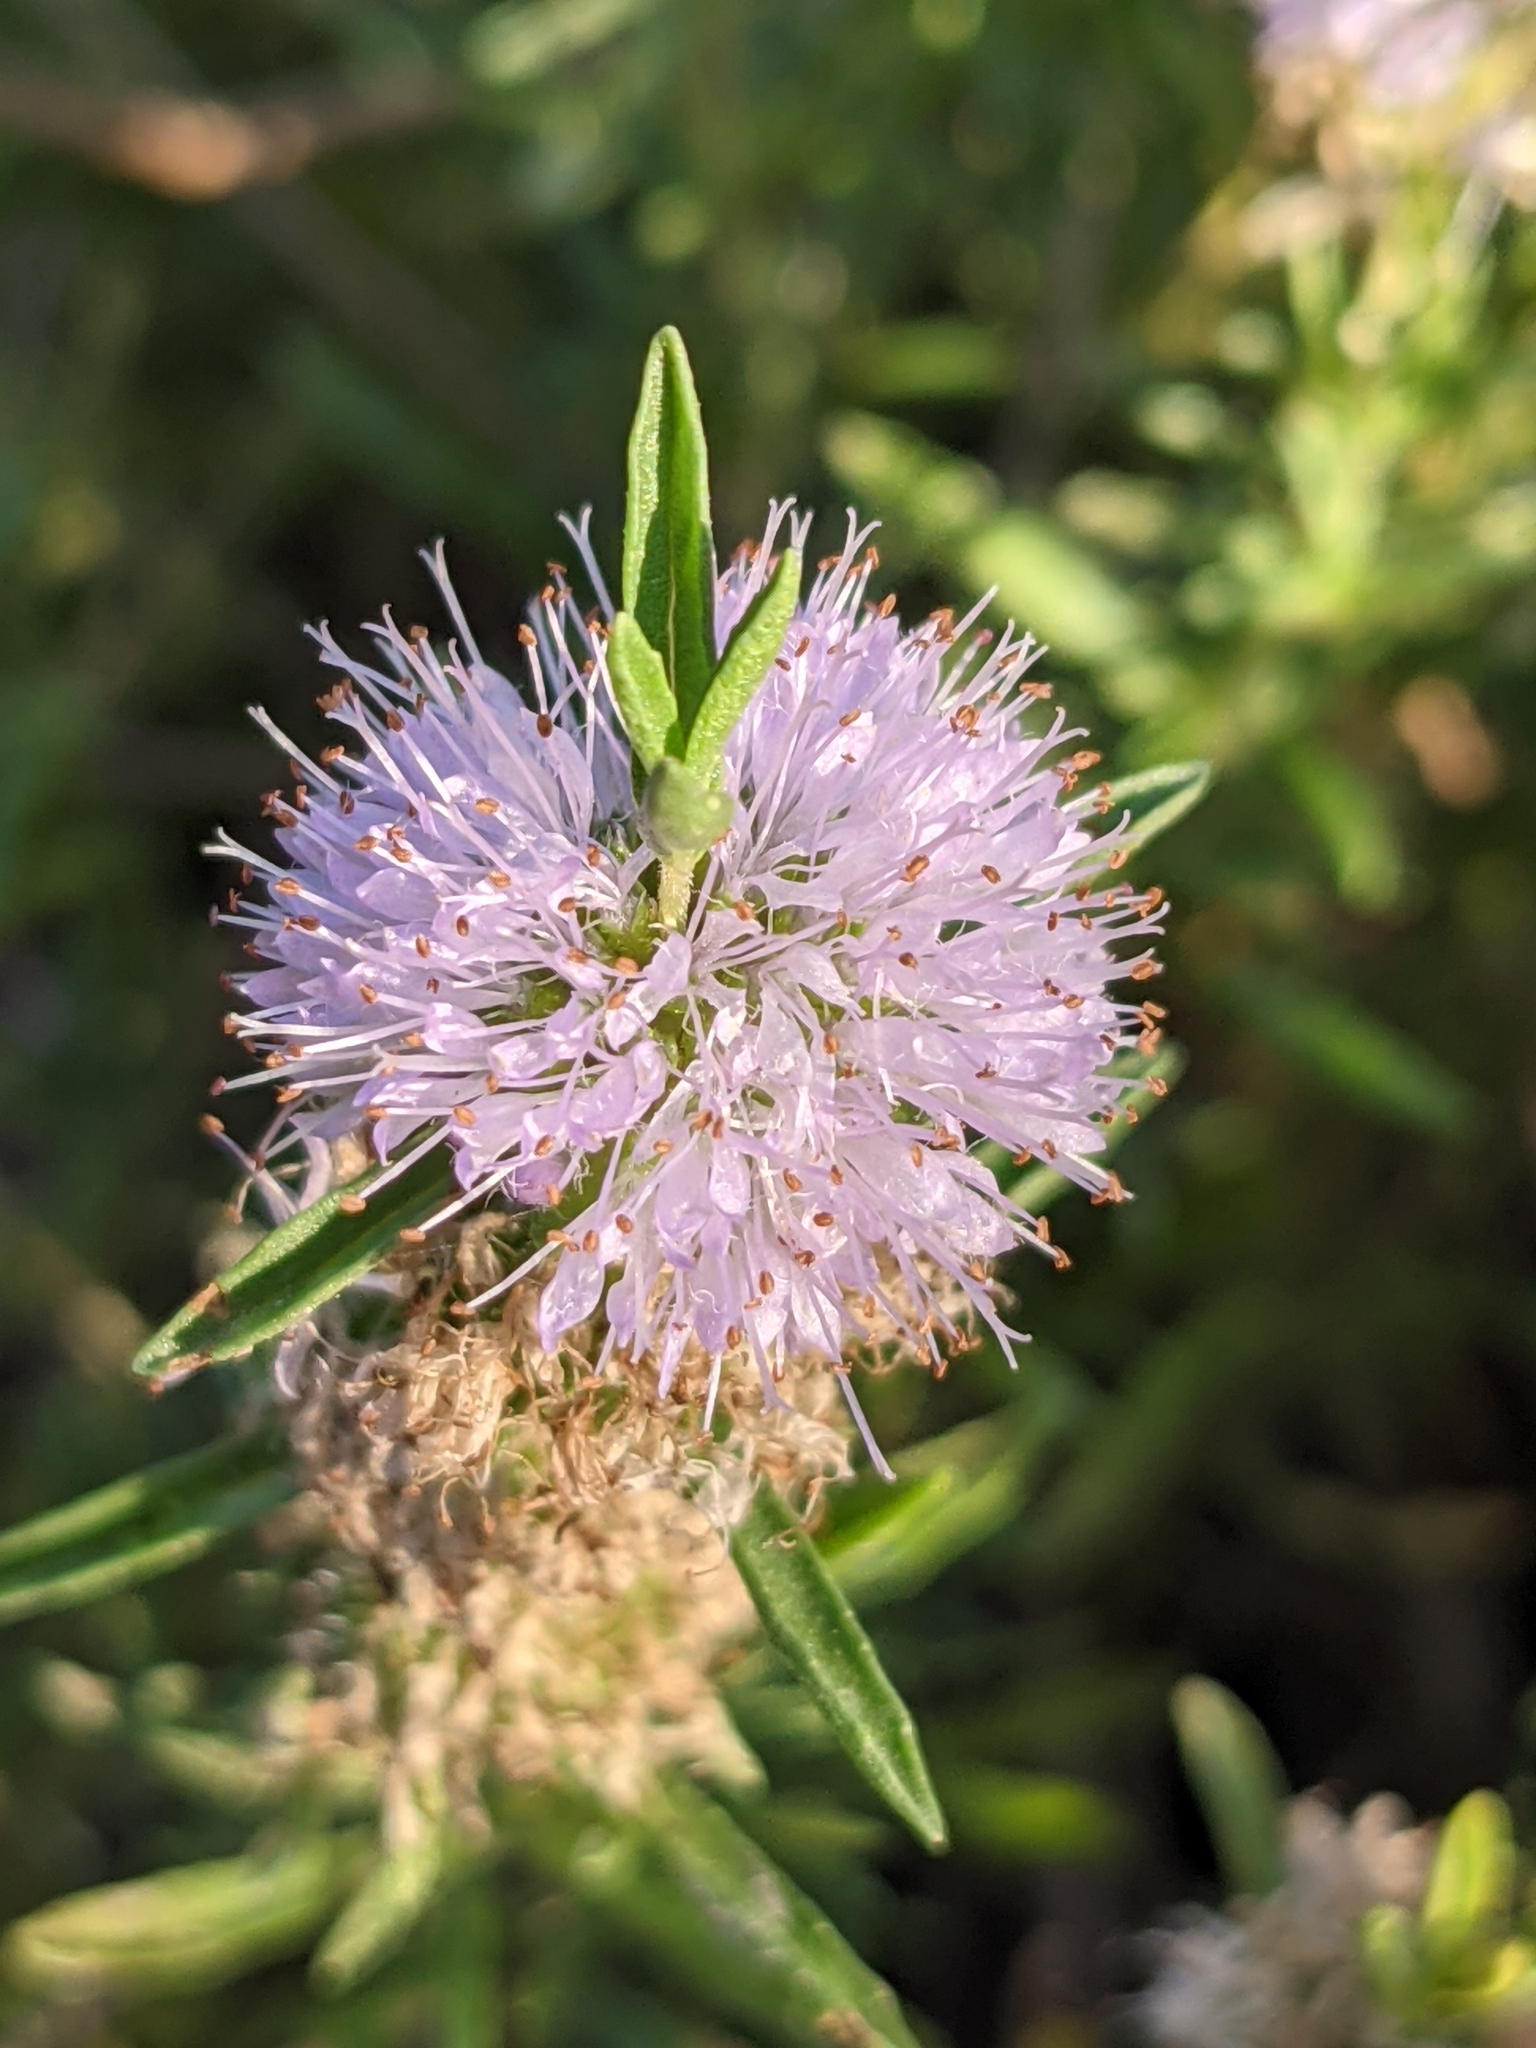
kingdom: Plantae
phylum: Tracheophyta
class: Magnoliopsida
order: Lamiales
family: Lamiaceae
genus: Mentha
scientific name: Mentha cervina
